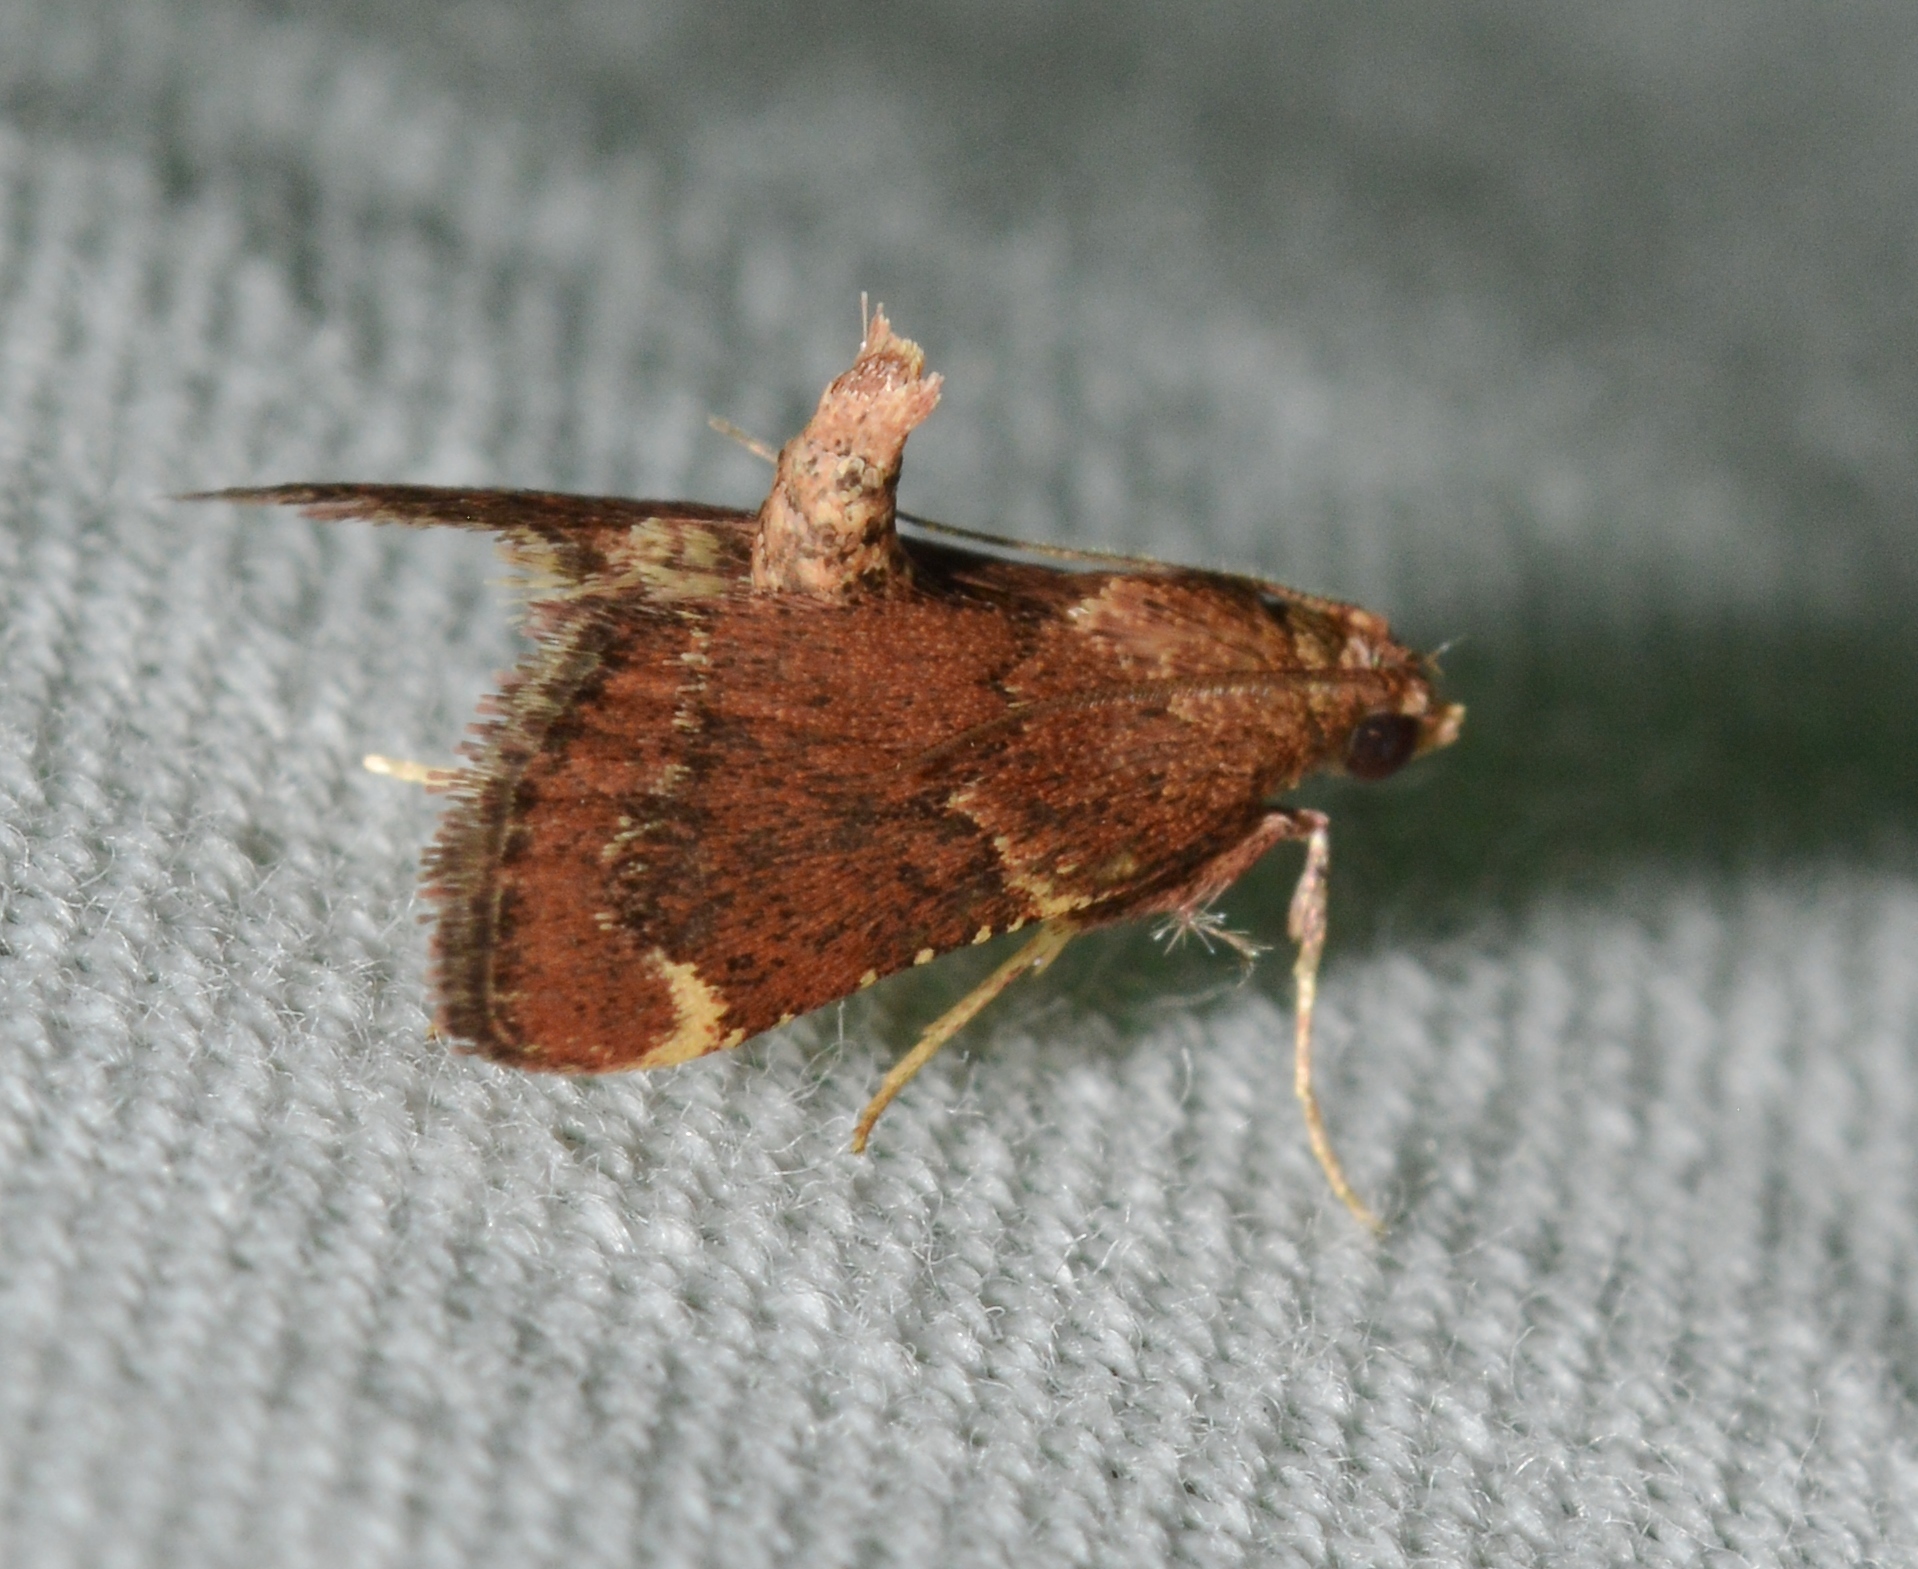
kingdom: Animalia
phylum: Arthropoda
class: Insecta
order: Lepidoptera
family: Pyralidae
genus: Hypsopygia
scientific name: Hypsopygia intermedialis
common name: Red-shawled moth
